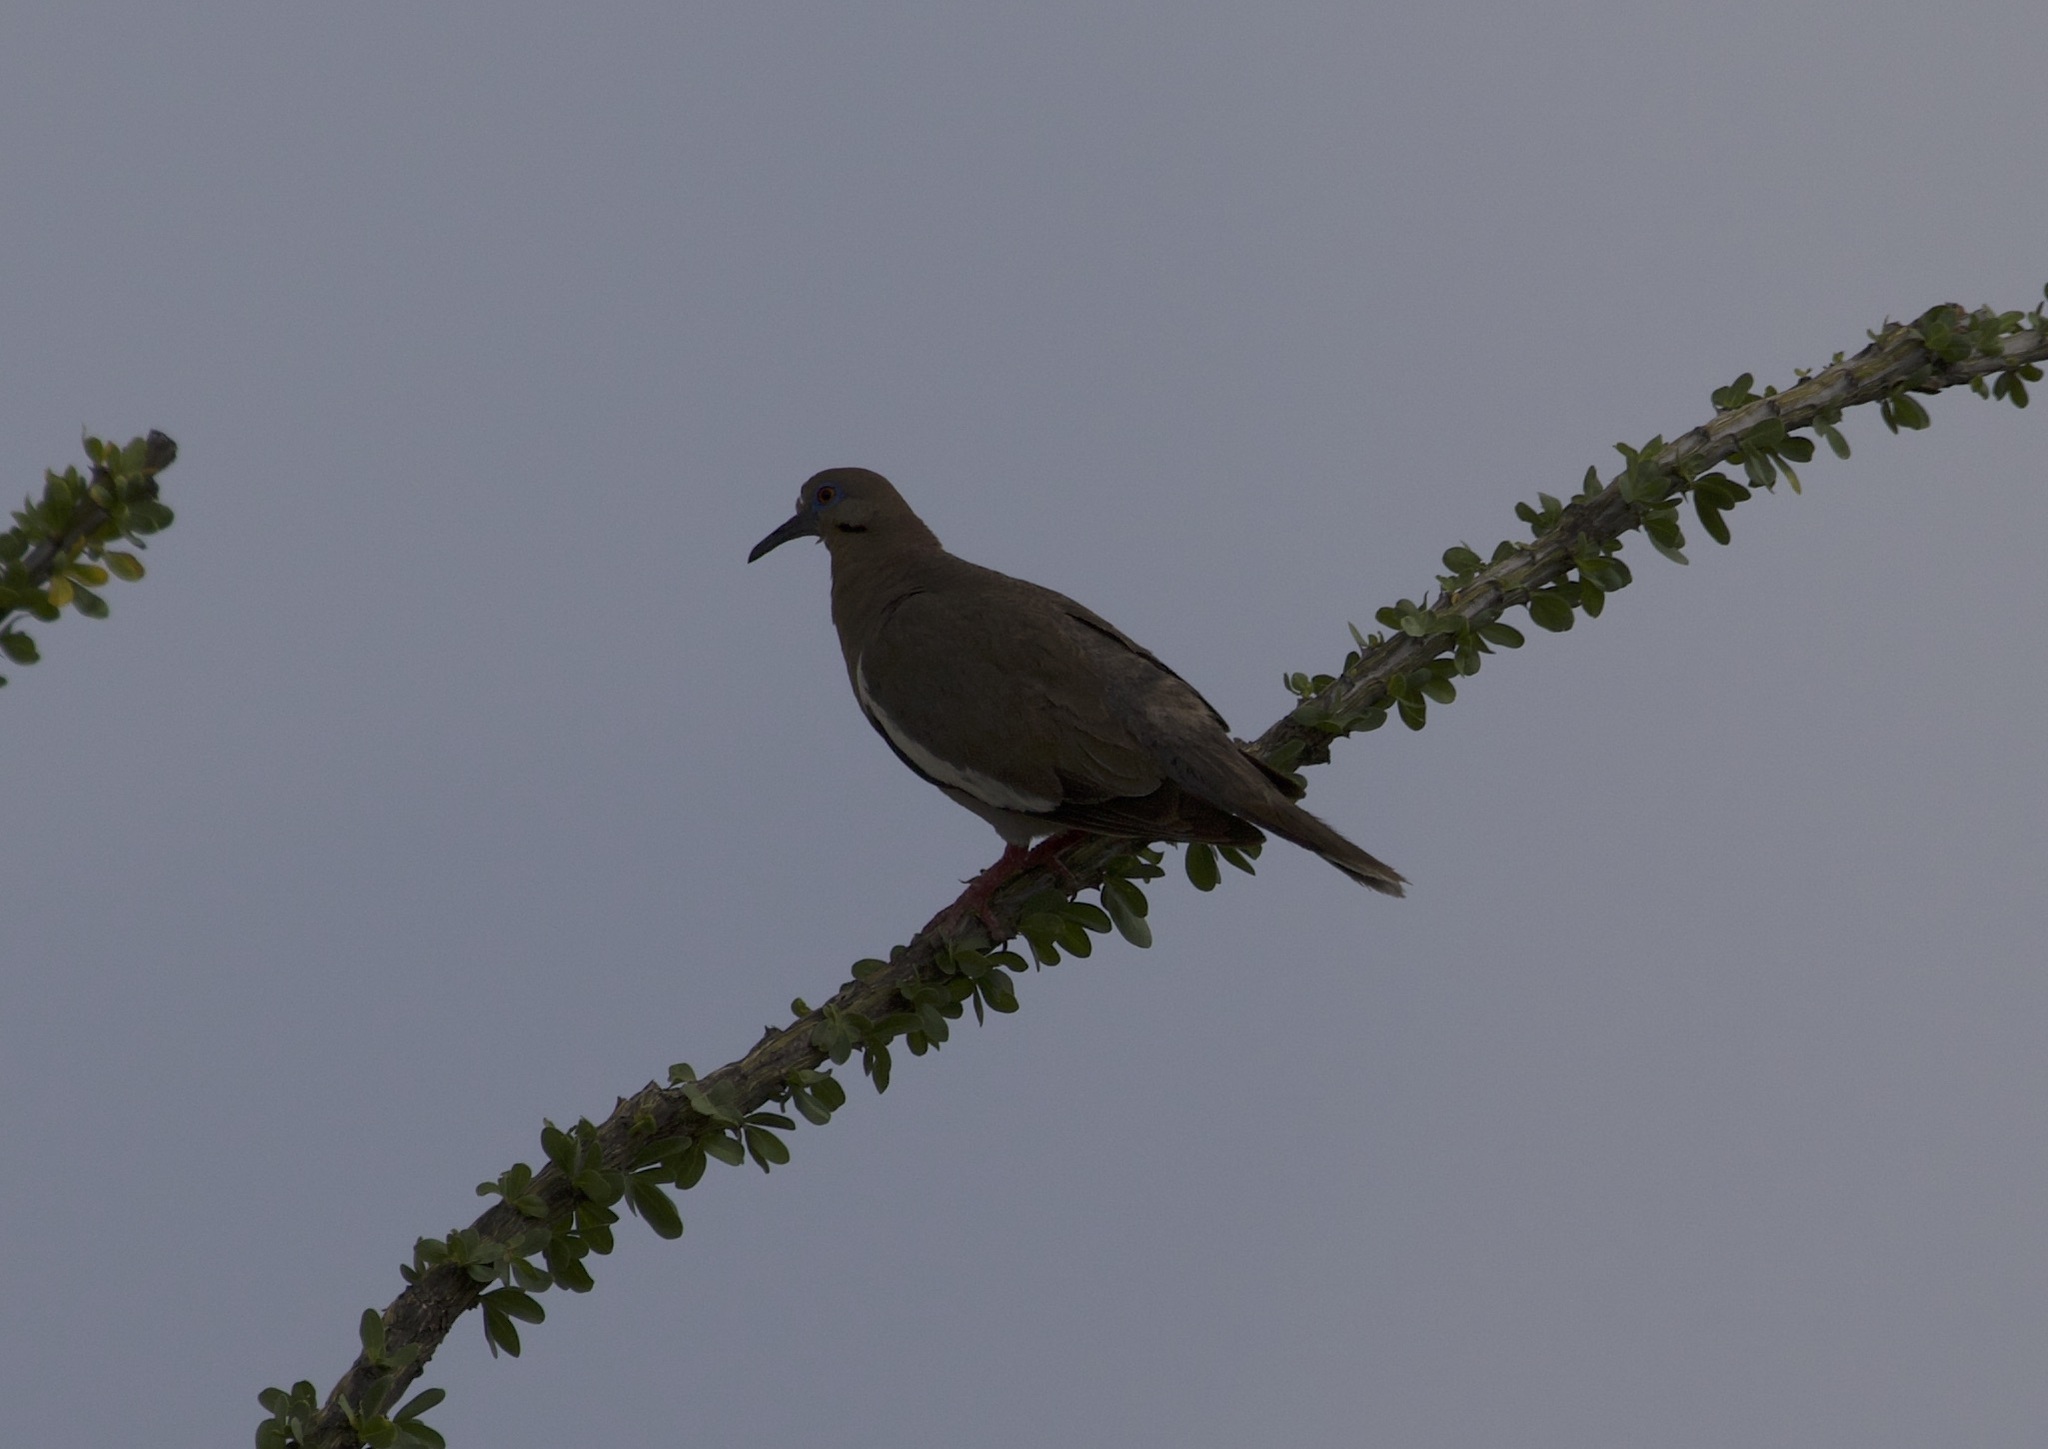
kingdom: Animalia
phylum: Chordata
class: Aves
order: Columbiformes
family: Columbidae
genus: Zenaida
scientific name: Zenaida asiatica
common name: White-winged dove
